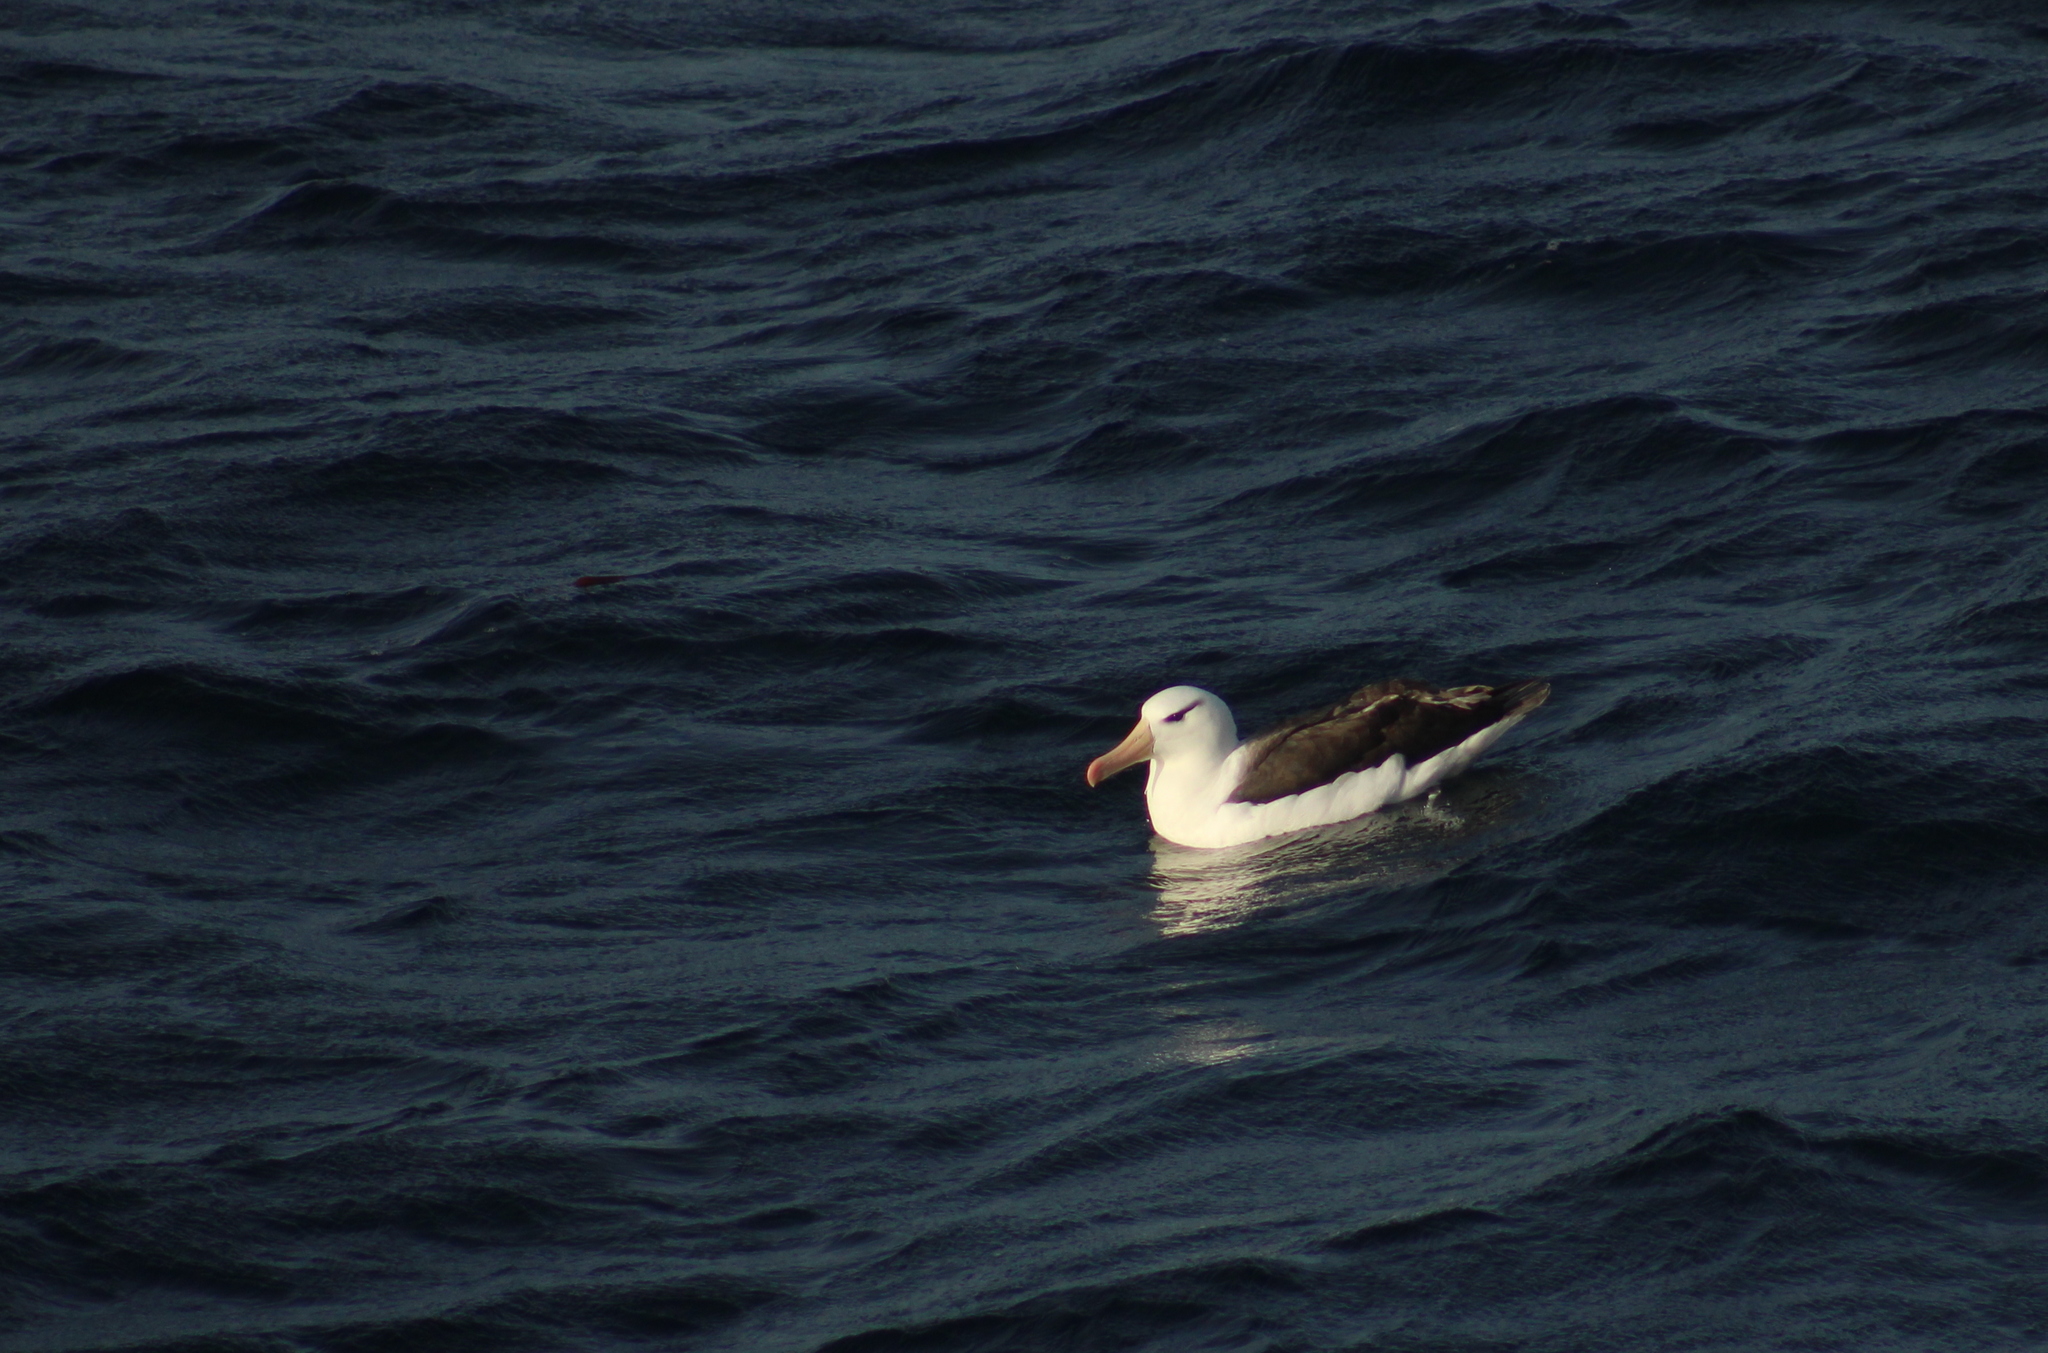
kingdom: Animalia
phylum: Chordata
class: Aves
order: Procellariiformes
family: Diomedeidae
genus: Thalassarche
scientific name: Thalassarche melanophris
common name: Black-browed albatross
